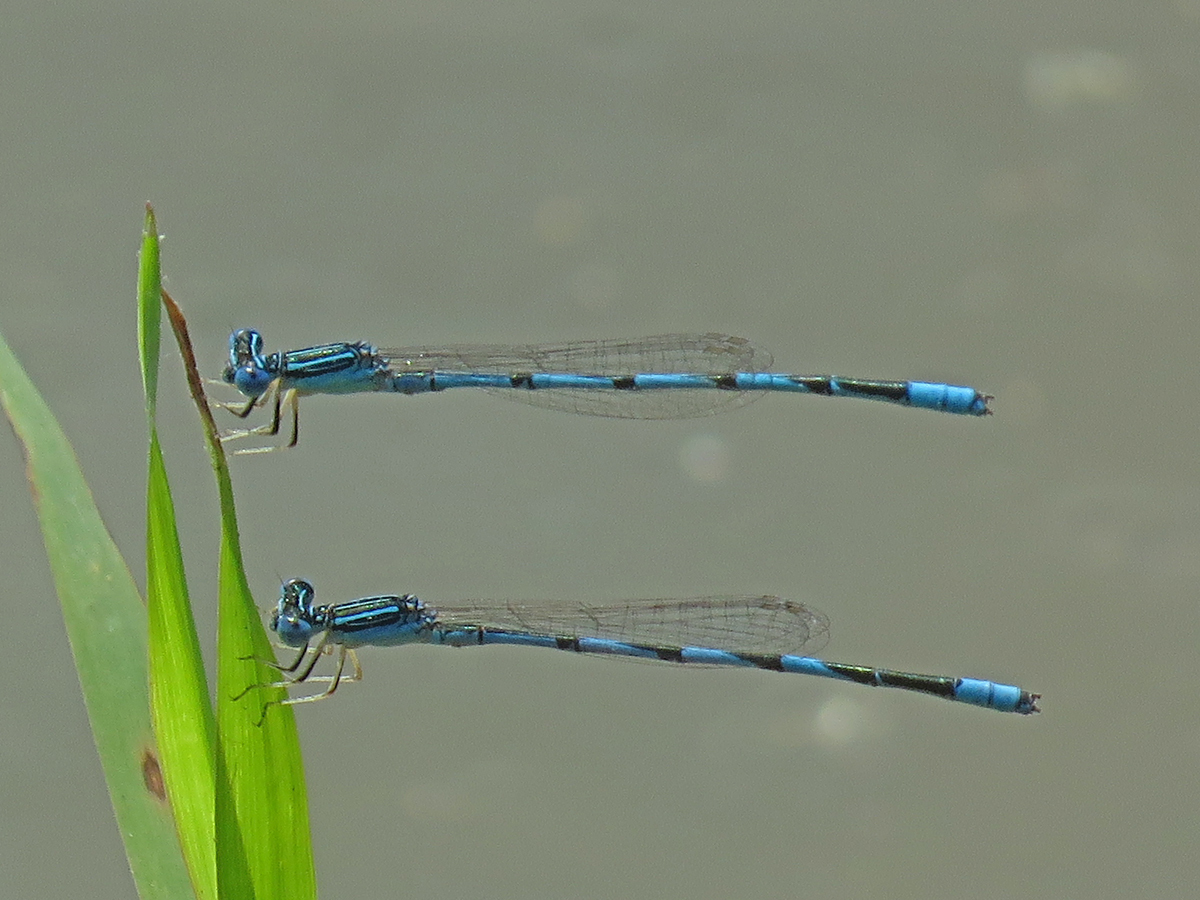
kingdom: Animalia
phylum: Arthropoda
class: Insecta
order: Odonata
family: Coenagrionidae
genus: Enallagma
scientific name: Enallagma basidens
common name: Double-striped bluet
